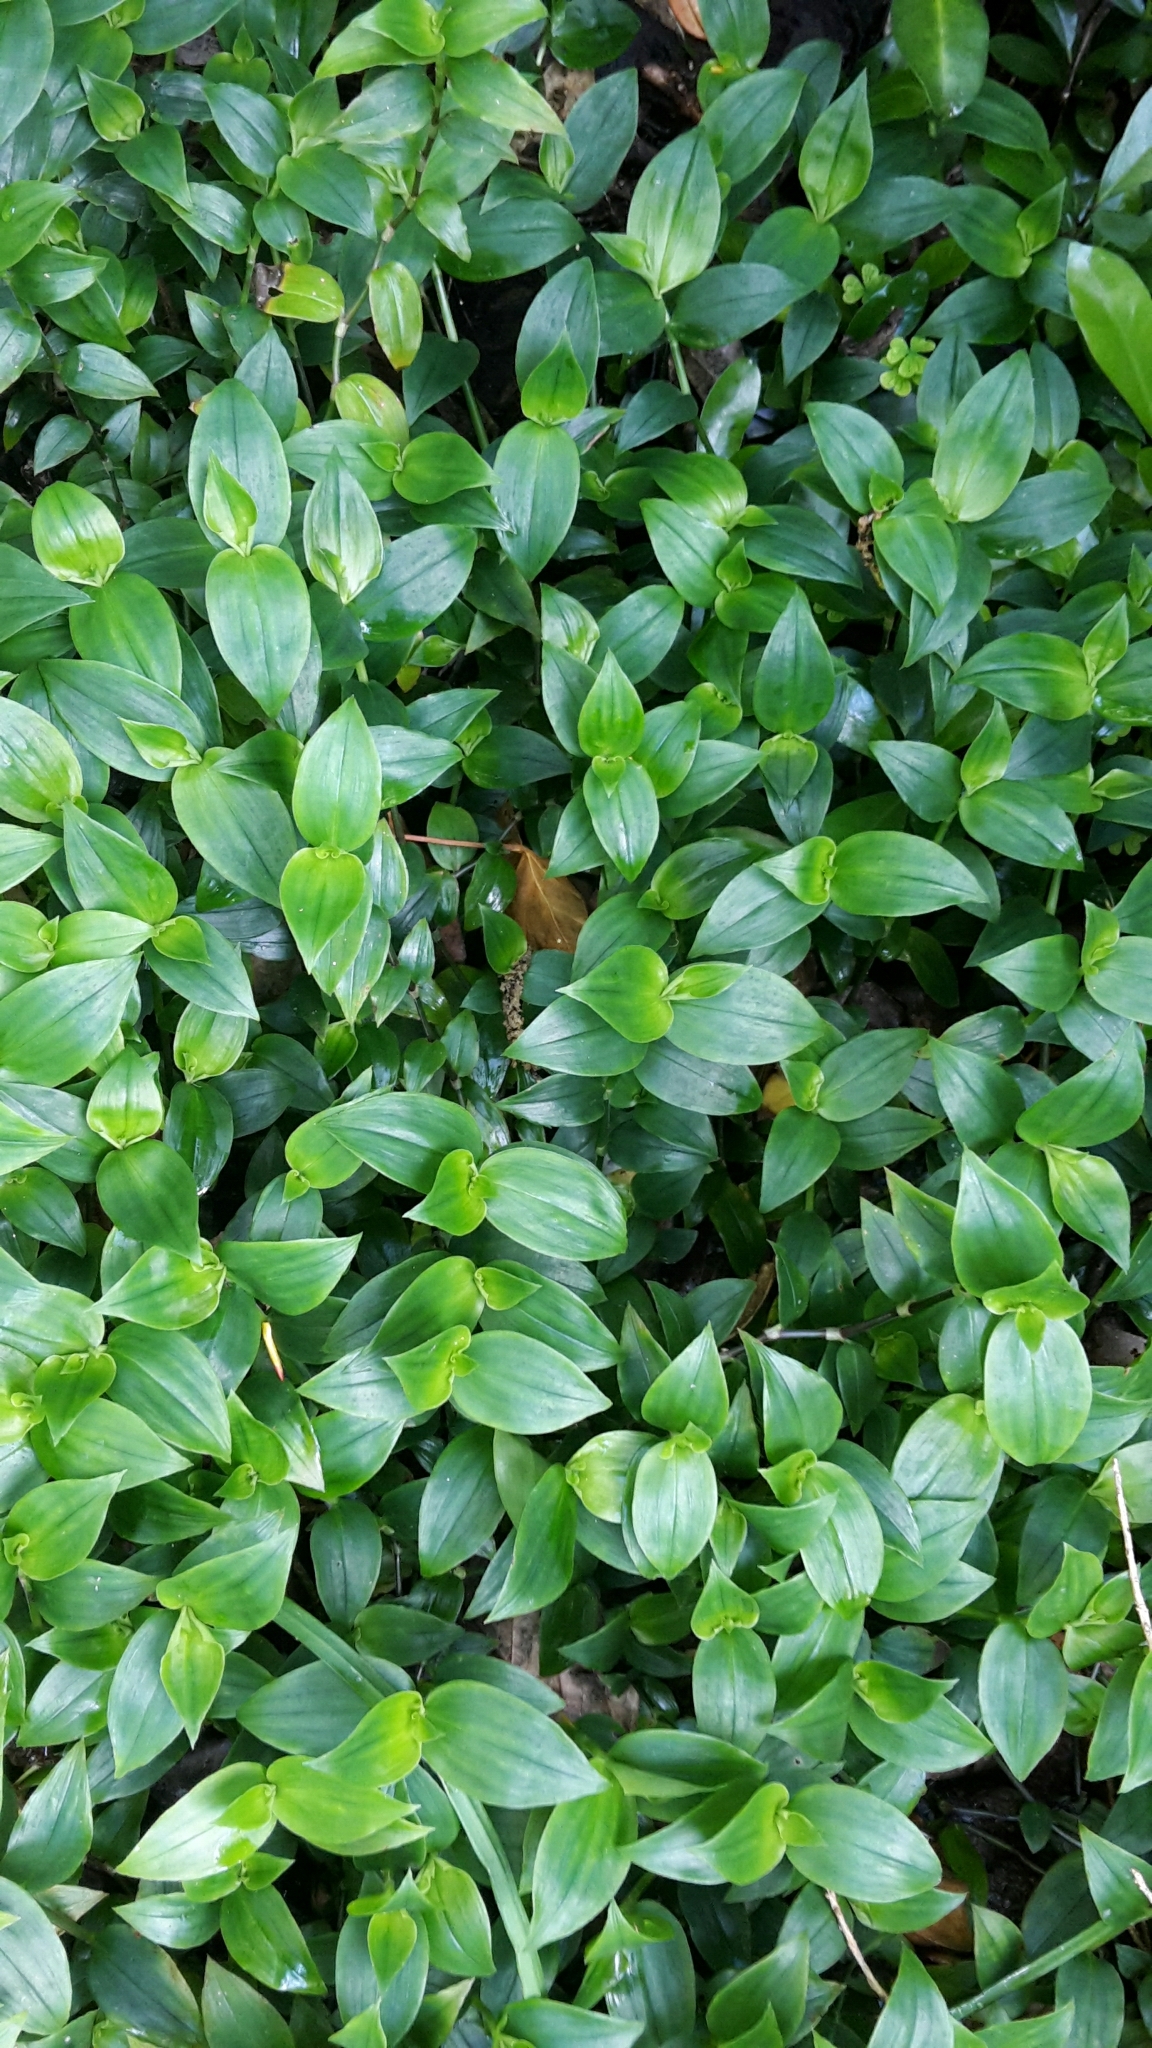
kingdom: Plantae
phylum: Tracheophyta
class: Liliopsida
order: Commelinales
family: Commelinaceae
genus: Tradescantia
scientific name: Tradescantia fluminensis
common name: Wandering-jew
